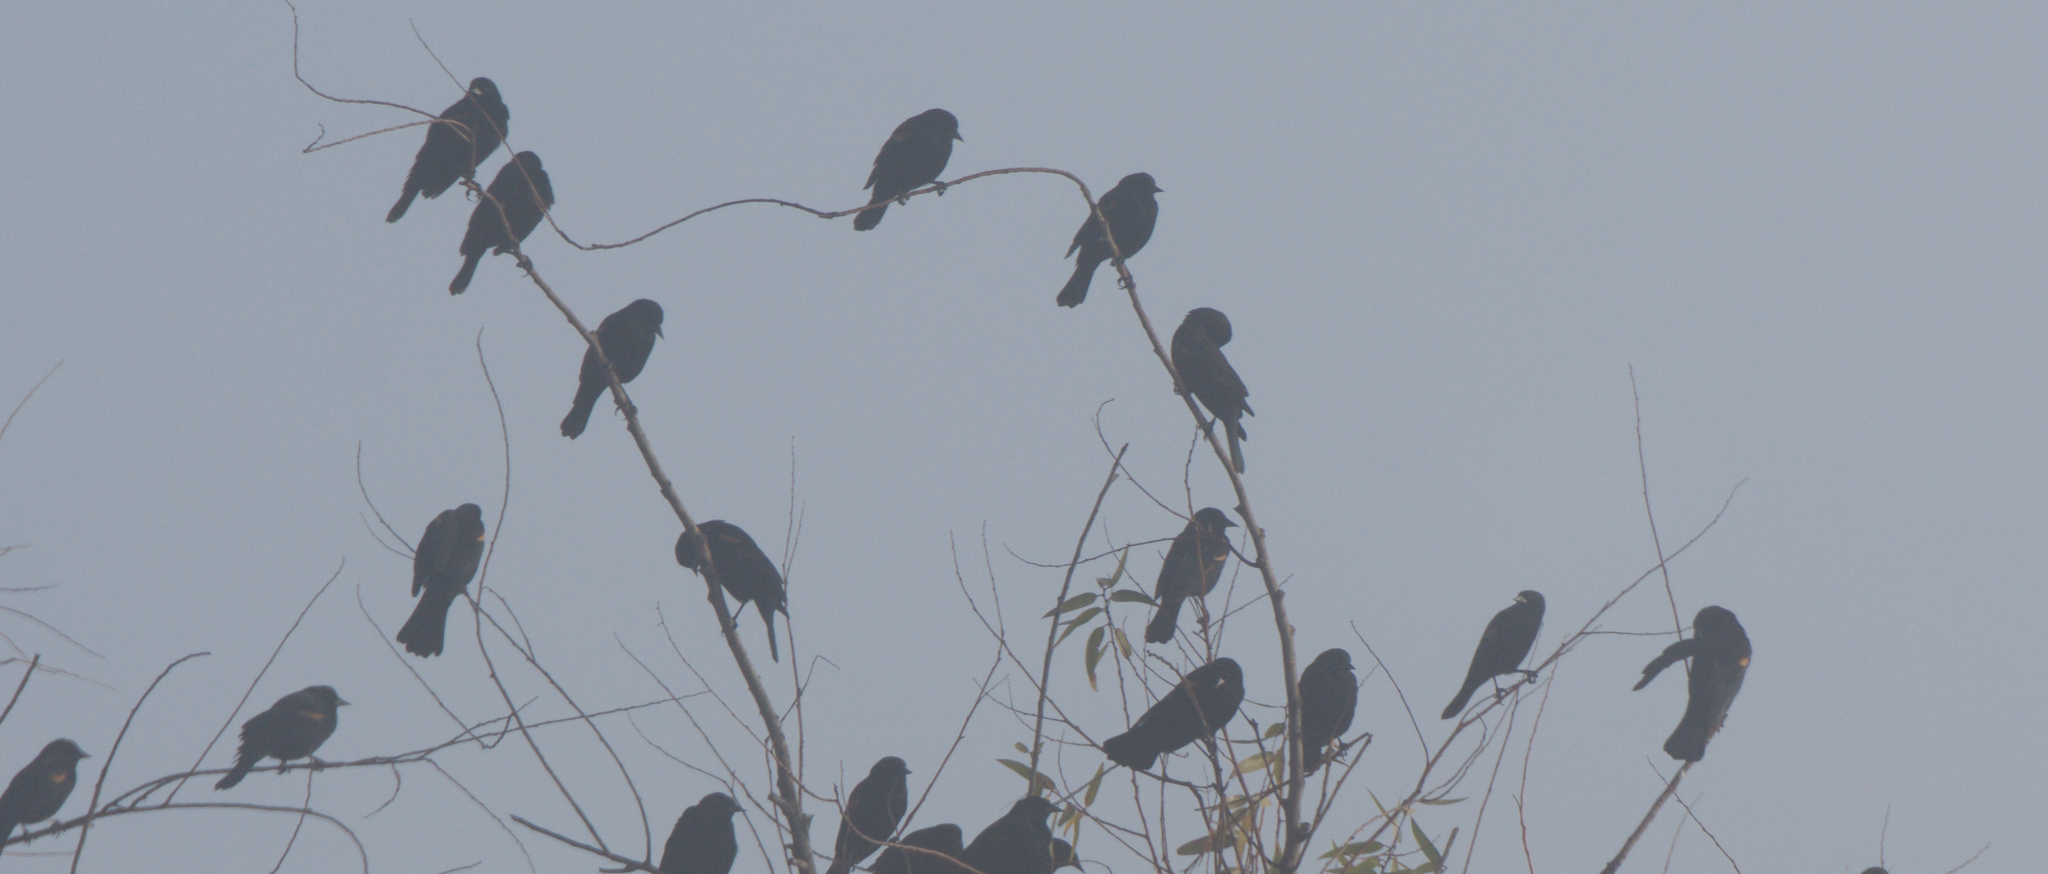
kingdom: Animalia
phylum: Chordata
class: Aves
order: Passeriformes
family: Icteridae
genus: Agelaius
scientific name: Agelaius phoeniceus
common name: Red-winged blackbird
